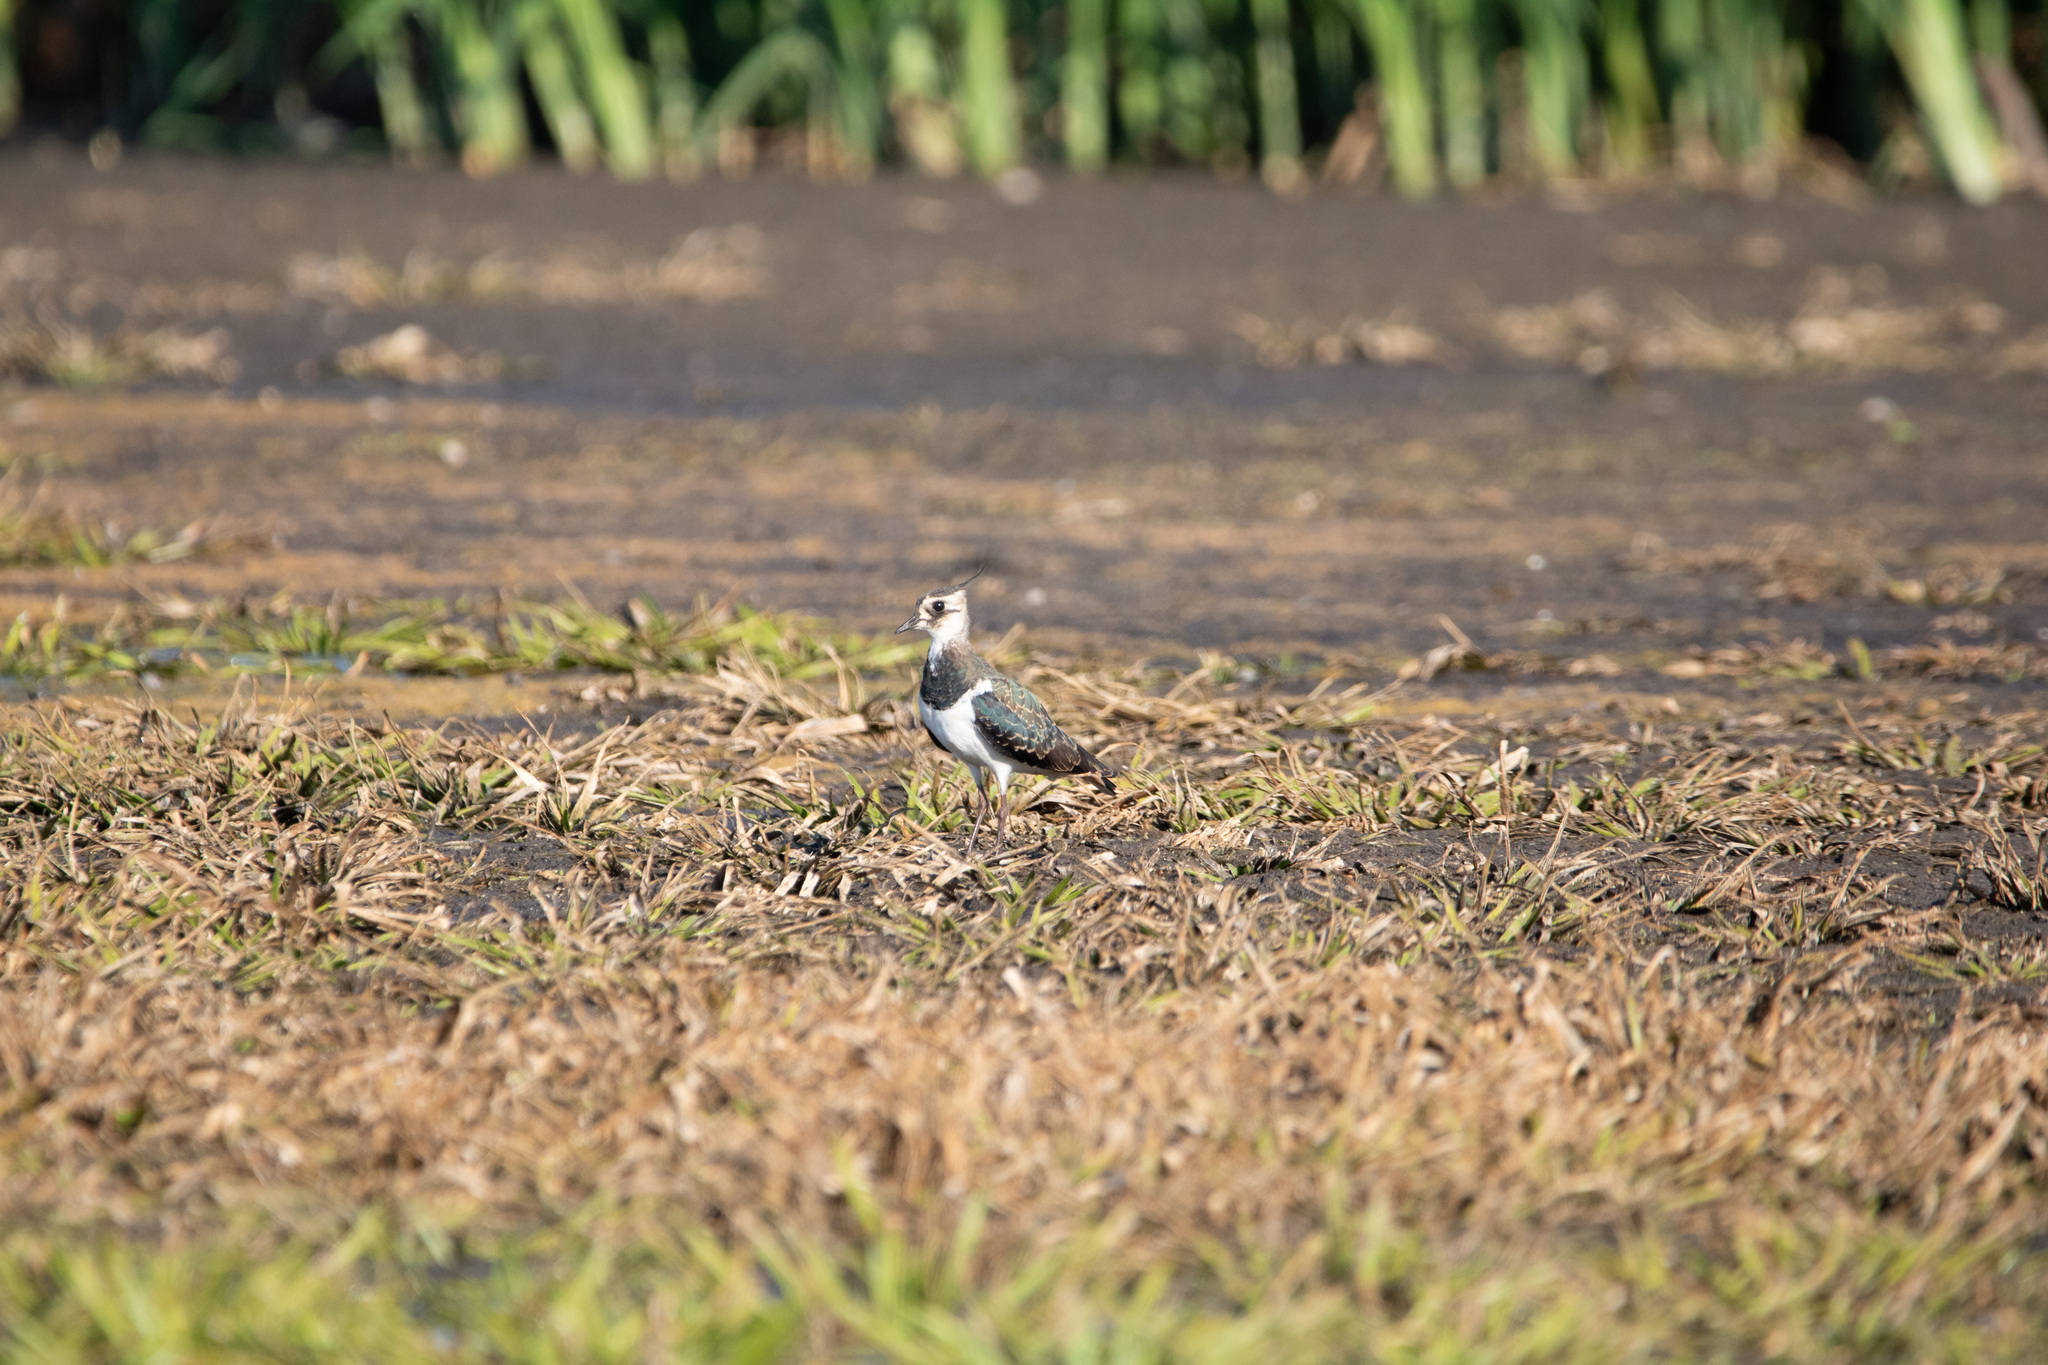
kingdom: Animalia
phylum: Chordata
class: Aves
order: Charadriiformes
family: Charadriidae
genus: Vanellus
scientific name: Vanellus vanellus
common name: Northern lapwing
